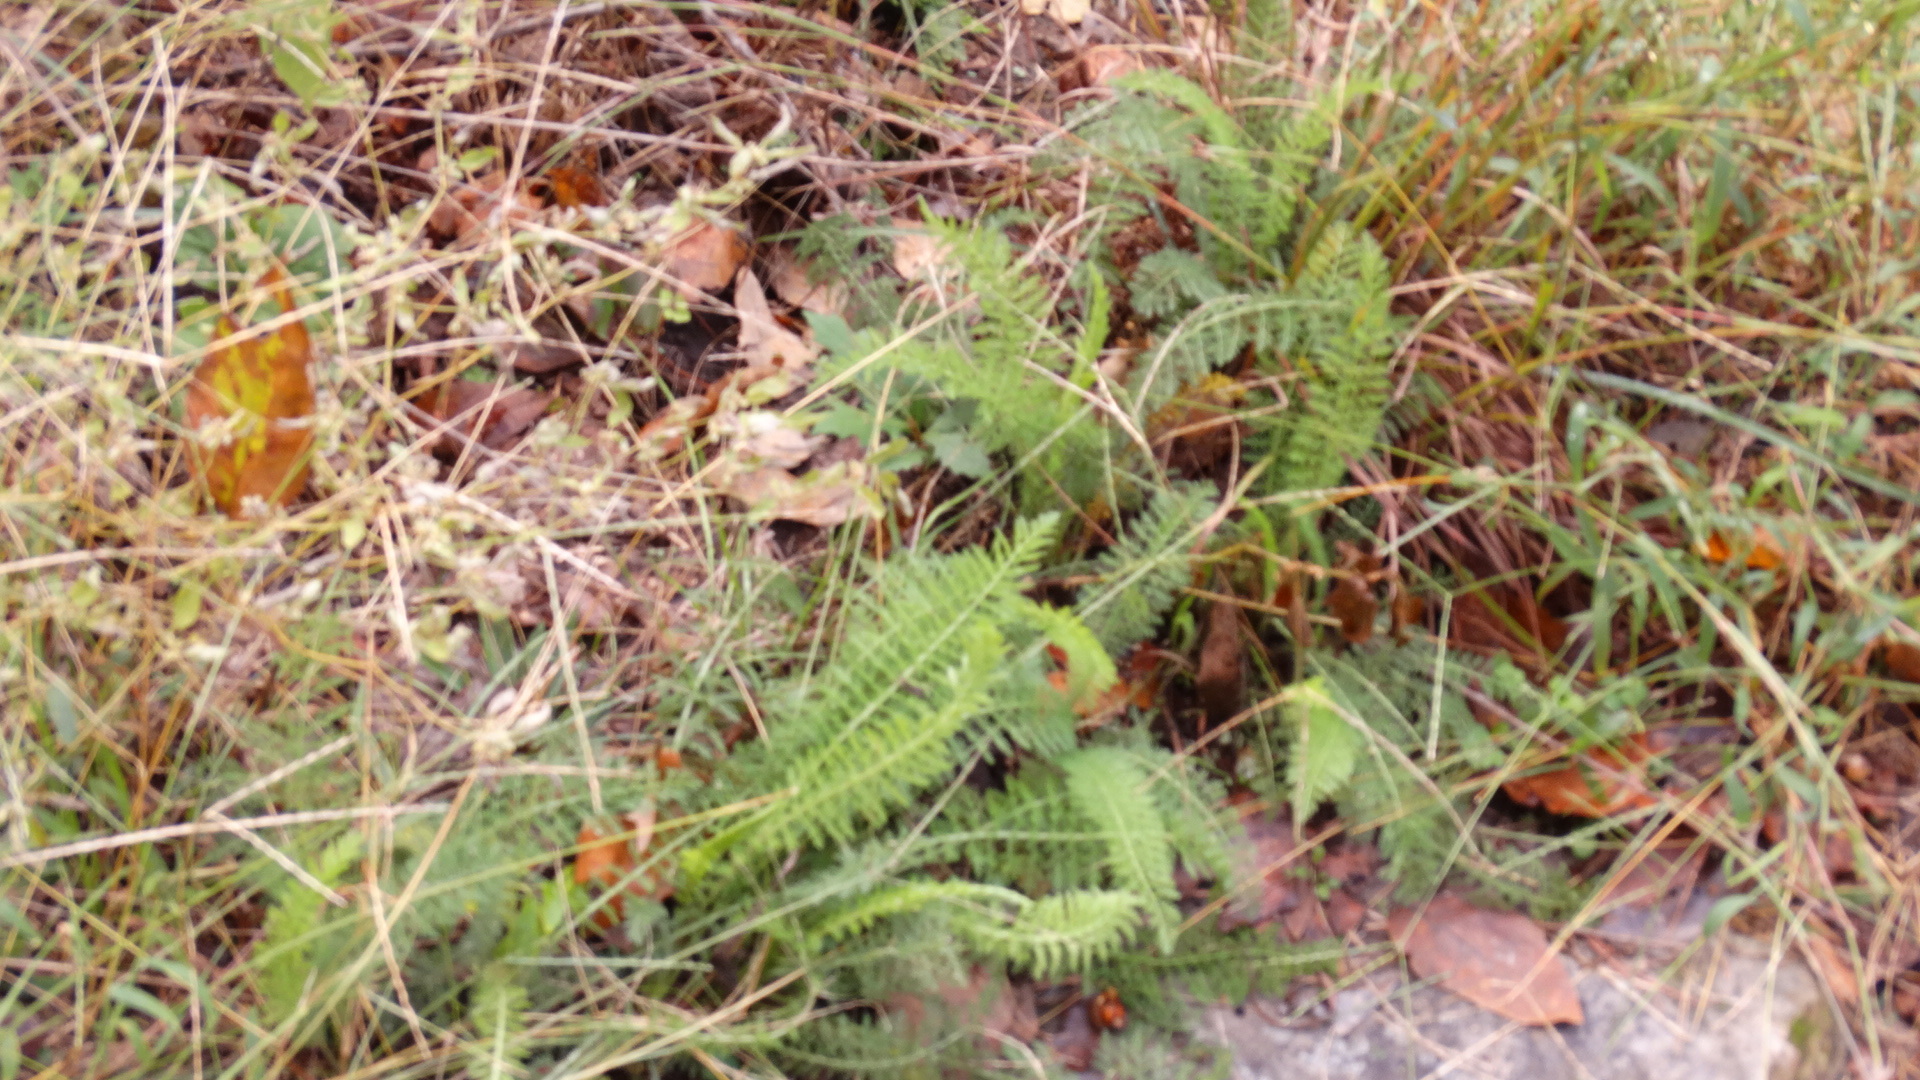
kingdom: Plantae
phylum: Tracheophyta
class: Magnoliopsida
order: Asterales
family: Asteraceae
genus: Achillea
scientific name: Achillea millefolium
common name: Yarrow
